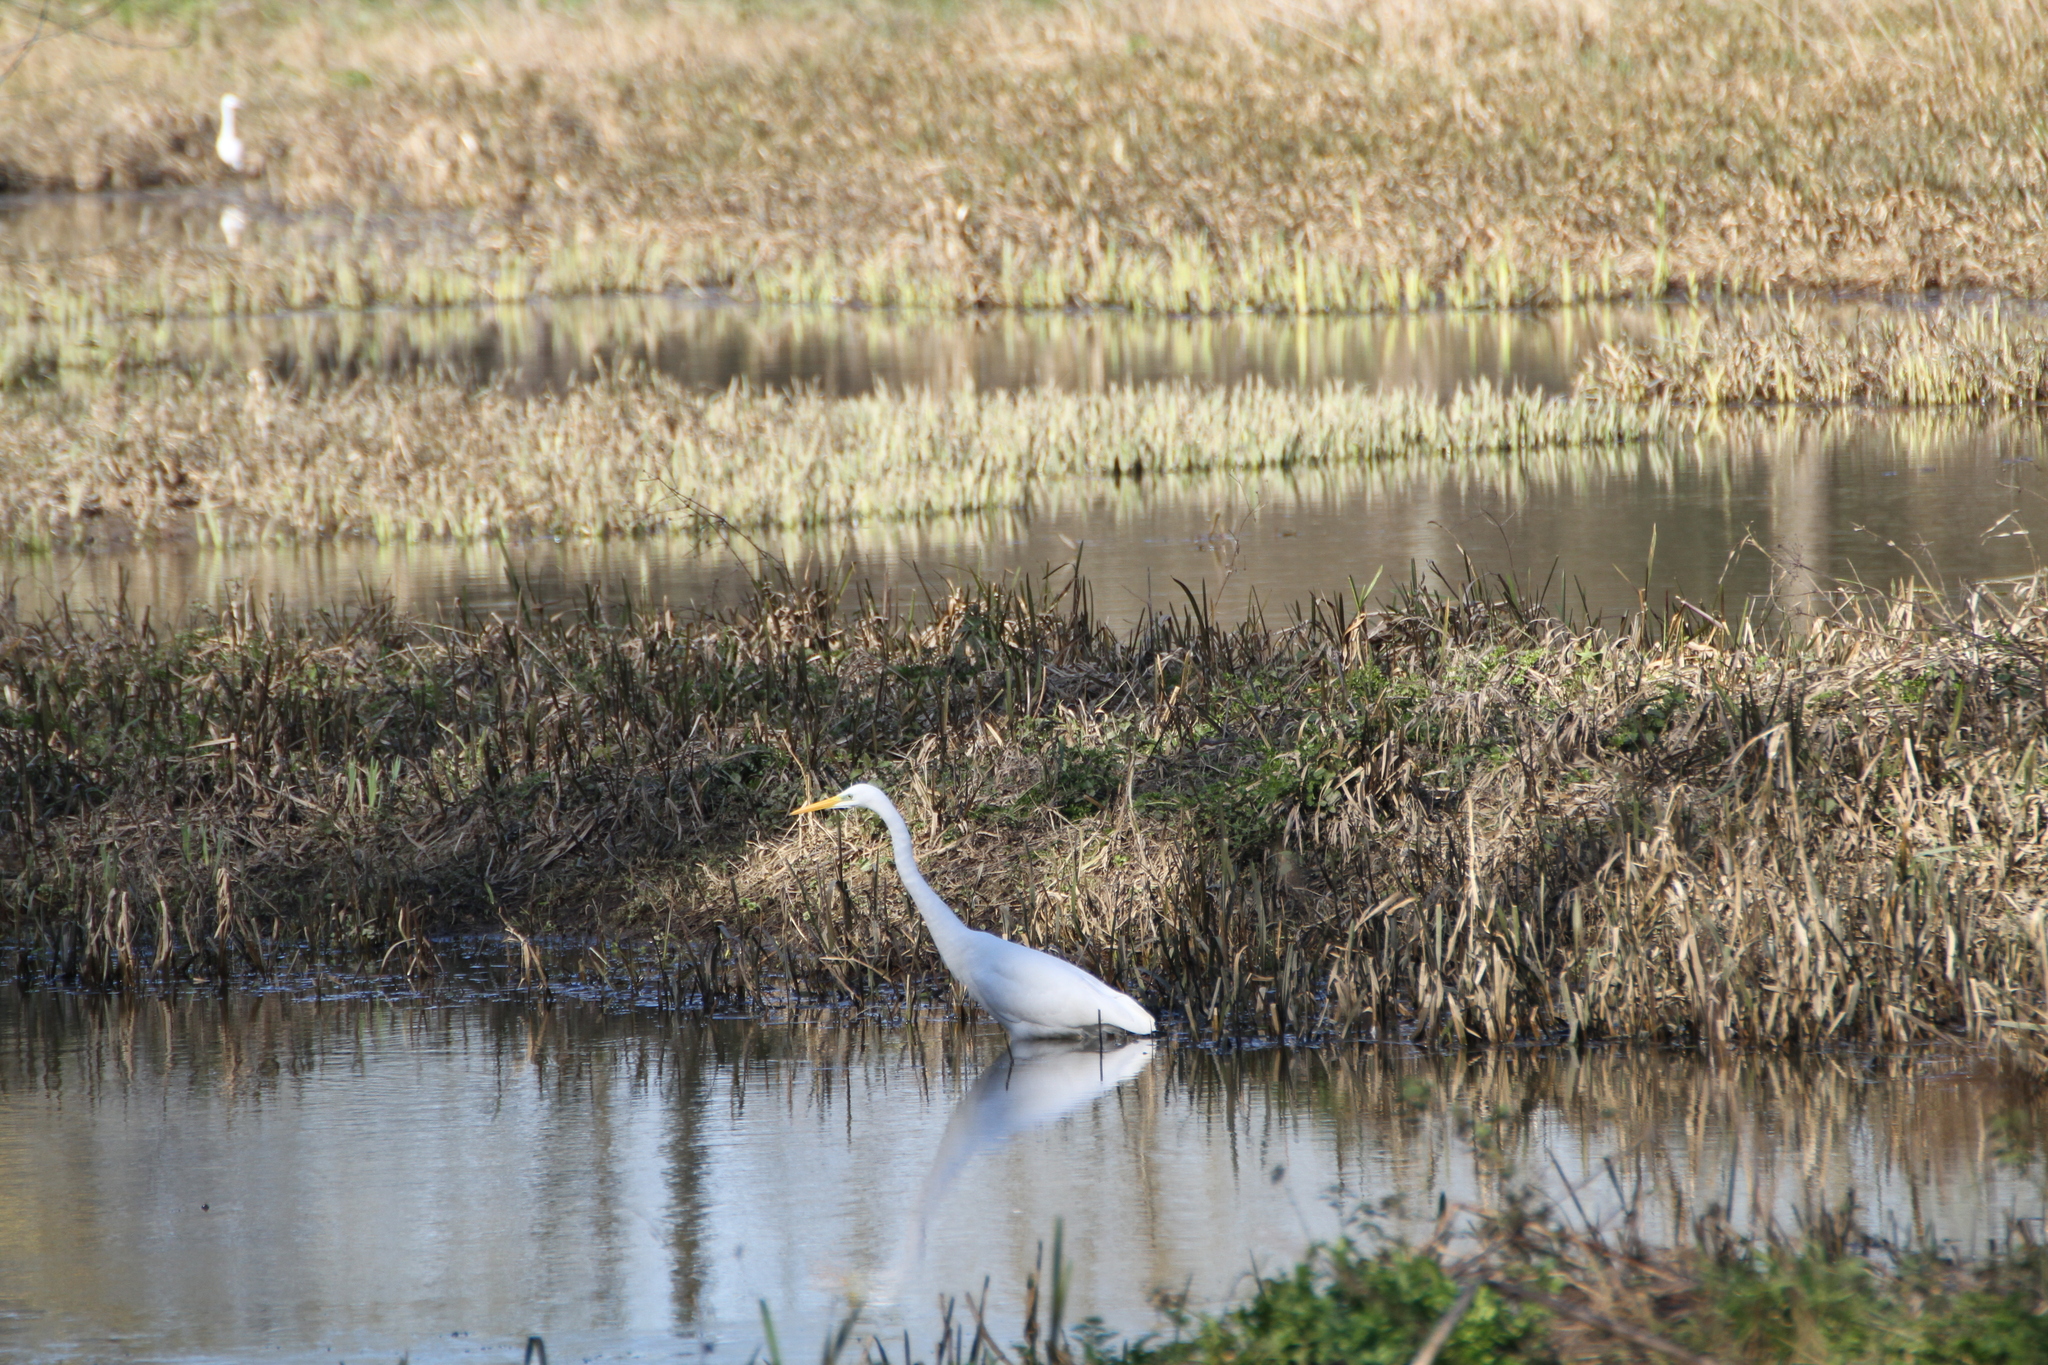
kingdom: Animalia
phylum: Chordata
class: Aves
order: Pelecaniformes
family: Ardeidae
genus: Ardea
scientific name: Ardea alba
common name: Great egret
